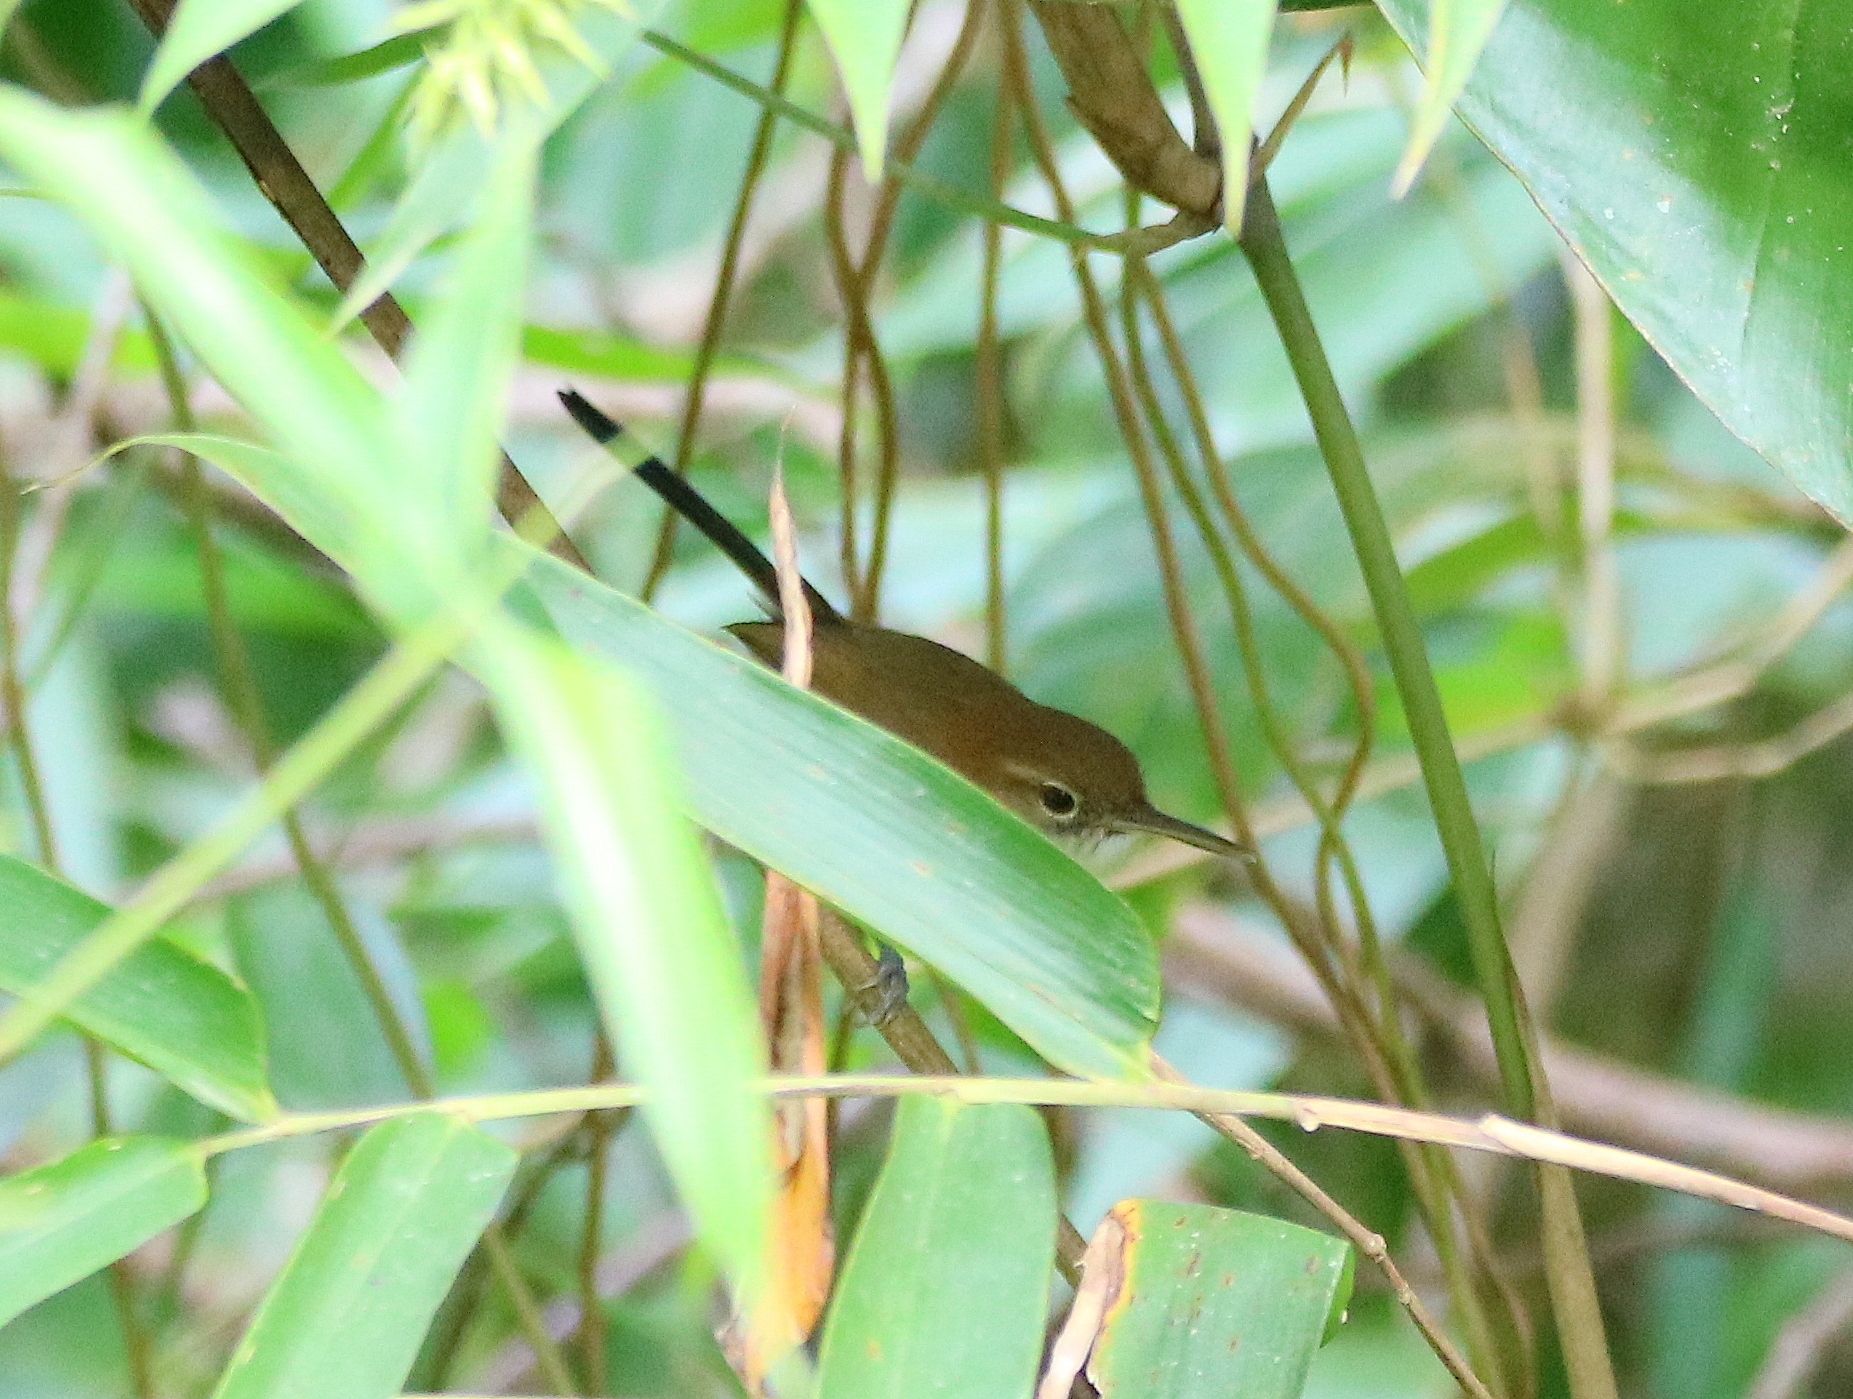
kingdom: Animalia
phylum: Chordata
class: Aves
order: Passeriformes
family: Polioptilidae
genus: Ramphocaenus
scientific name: Ramphocaenus melanurus
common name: Long-billed gnatwren
